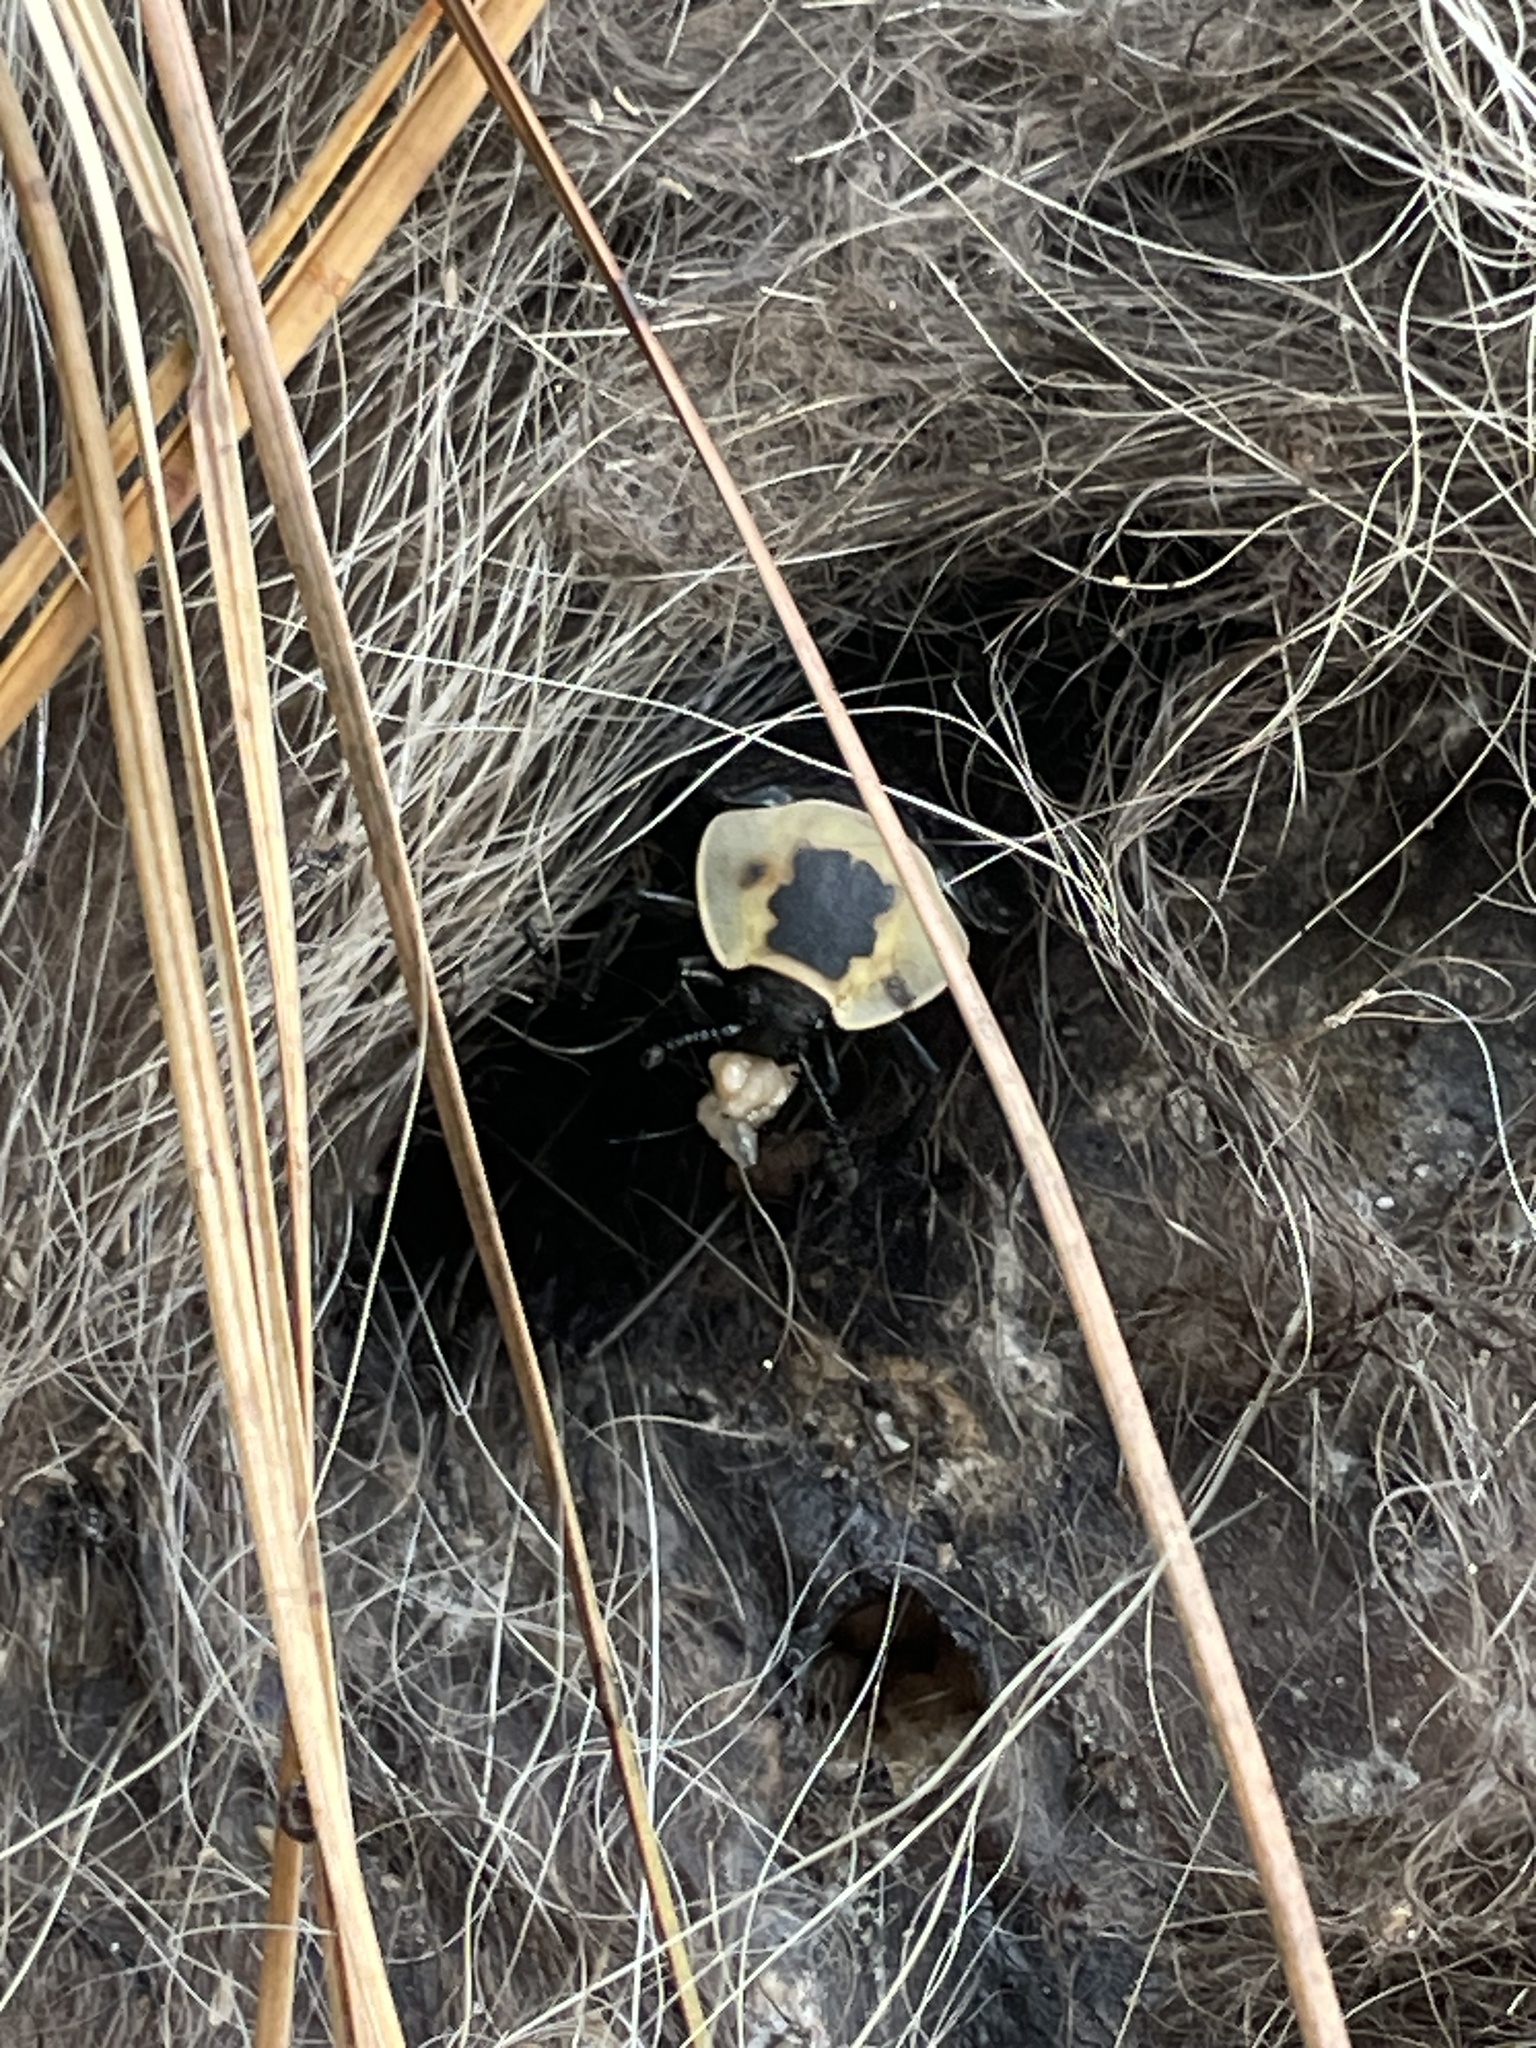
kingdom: Animalia
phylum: Arthropoda
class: Insecta
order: Coleoptera
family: Staphylinidae
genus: Necrophila
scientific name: Necrophila americana
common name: American carrion beetle
